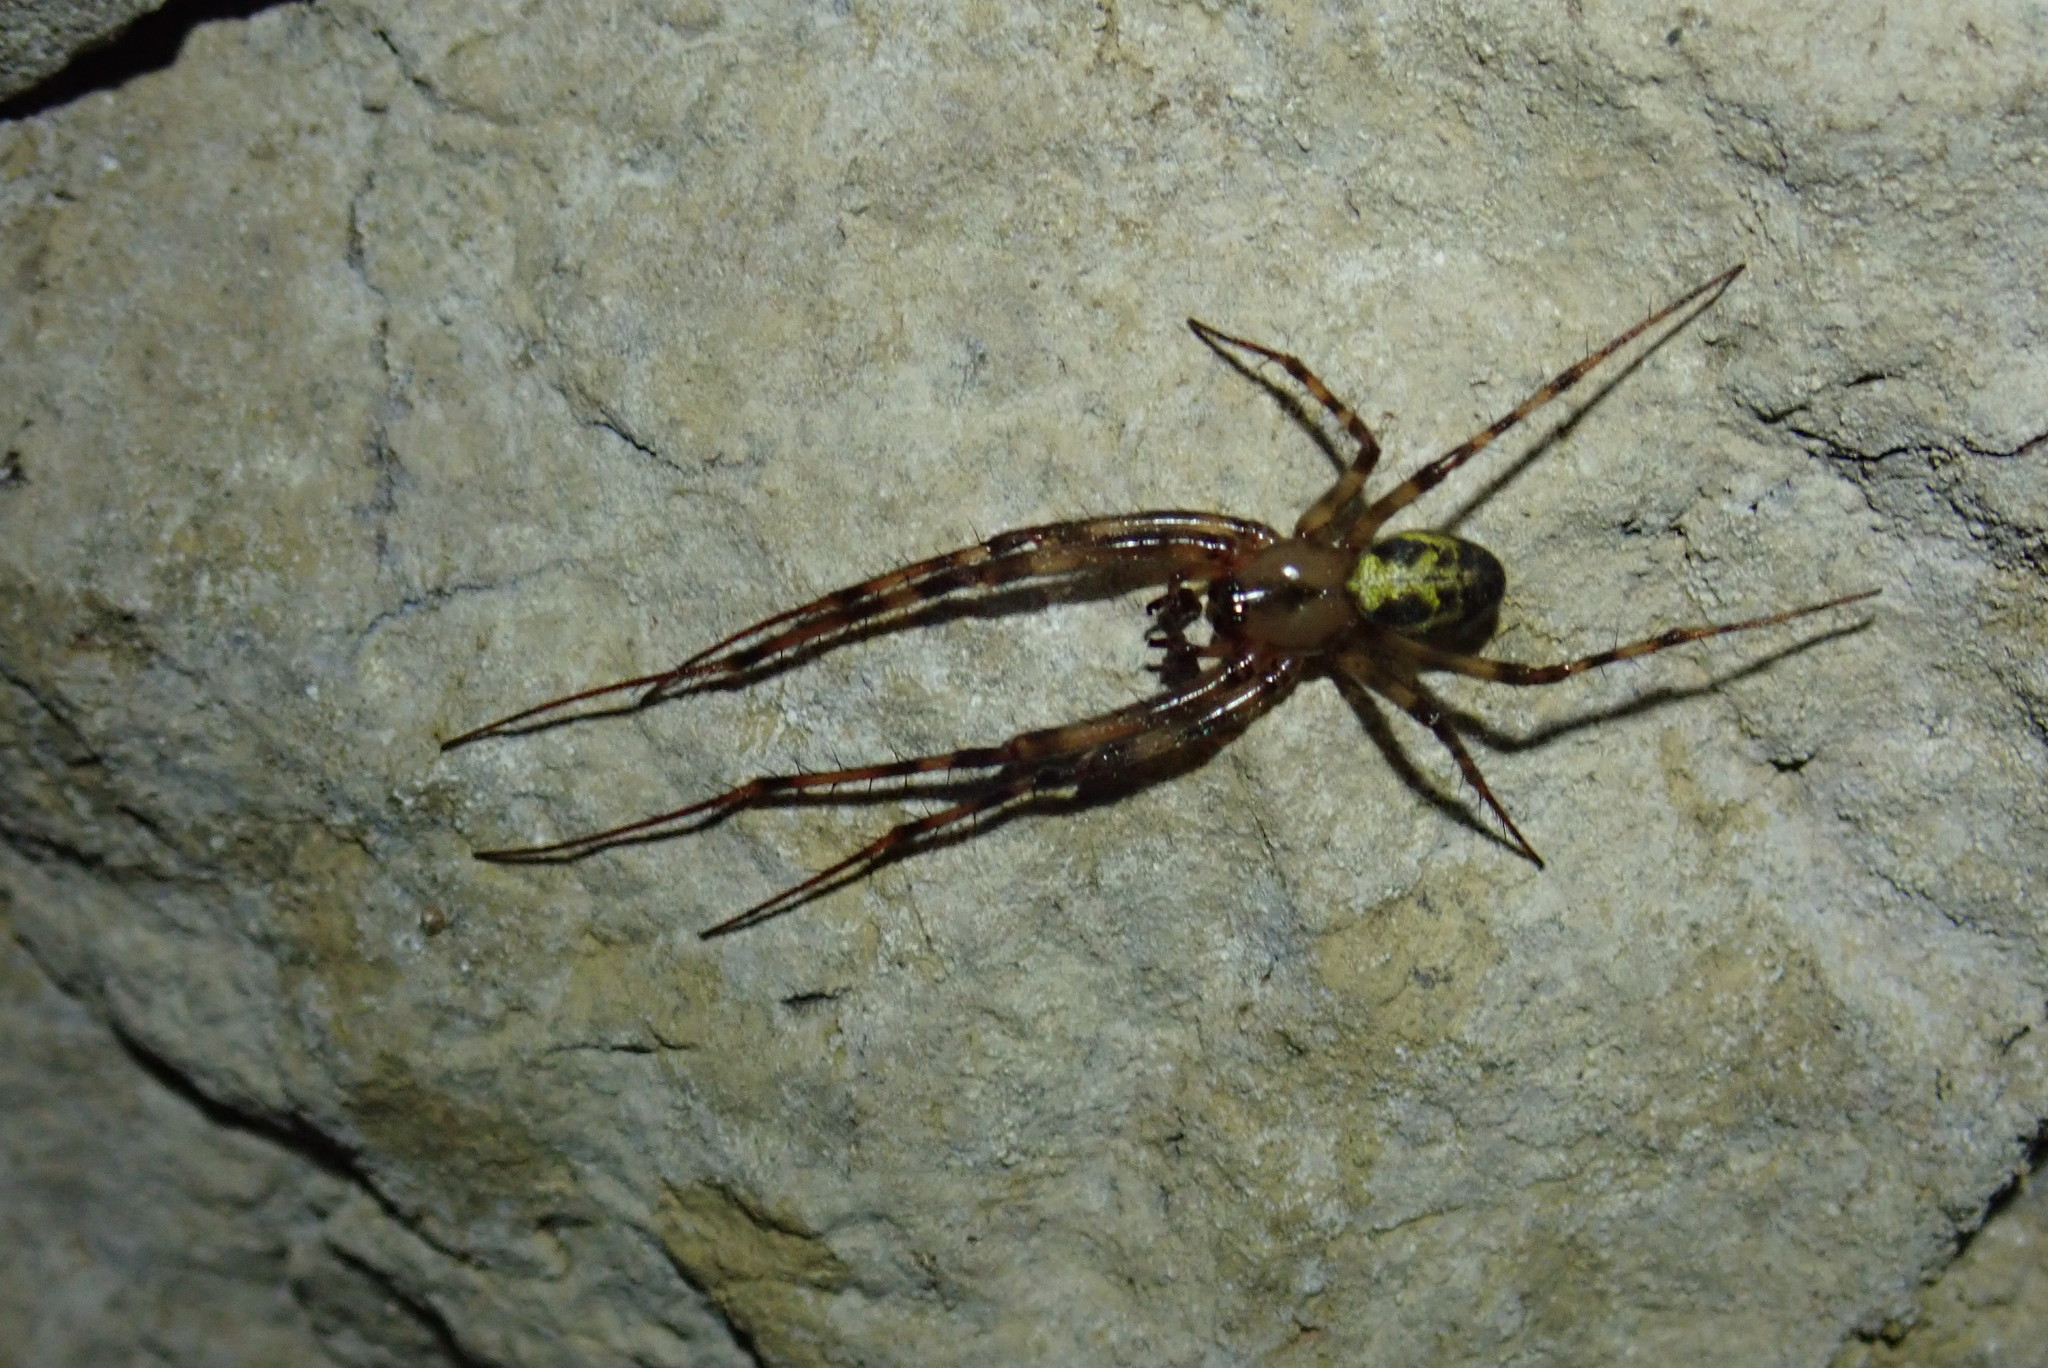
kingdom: Animalia
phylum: Arthropoda
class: Arachnida
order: Araneae
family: Tetragnathidae
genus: Meta
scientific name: Meta ovalis
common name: Eastern cave long-jawed spider
